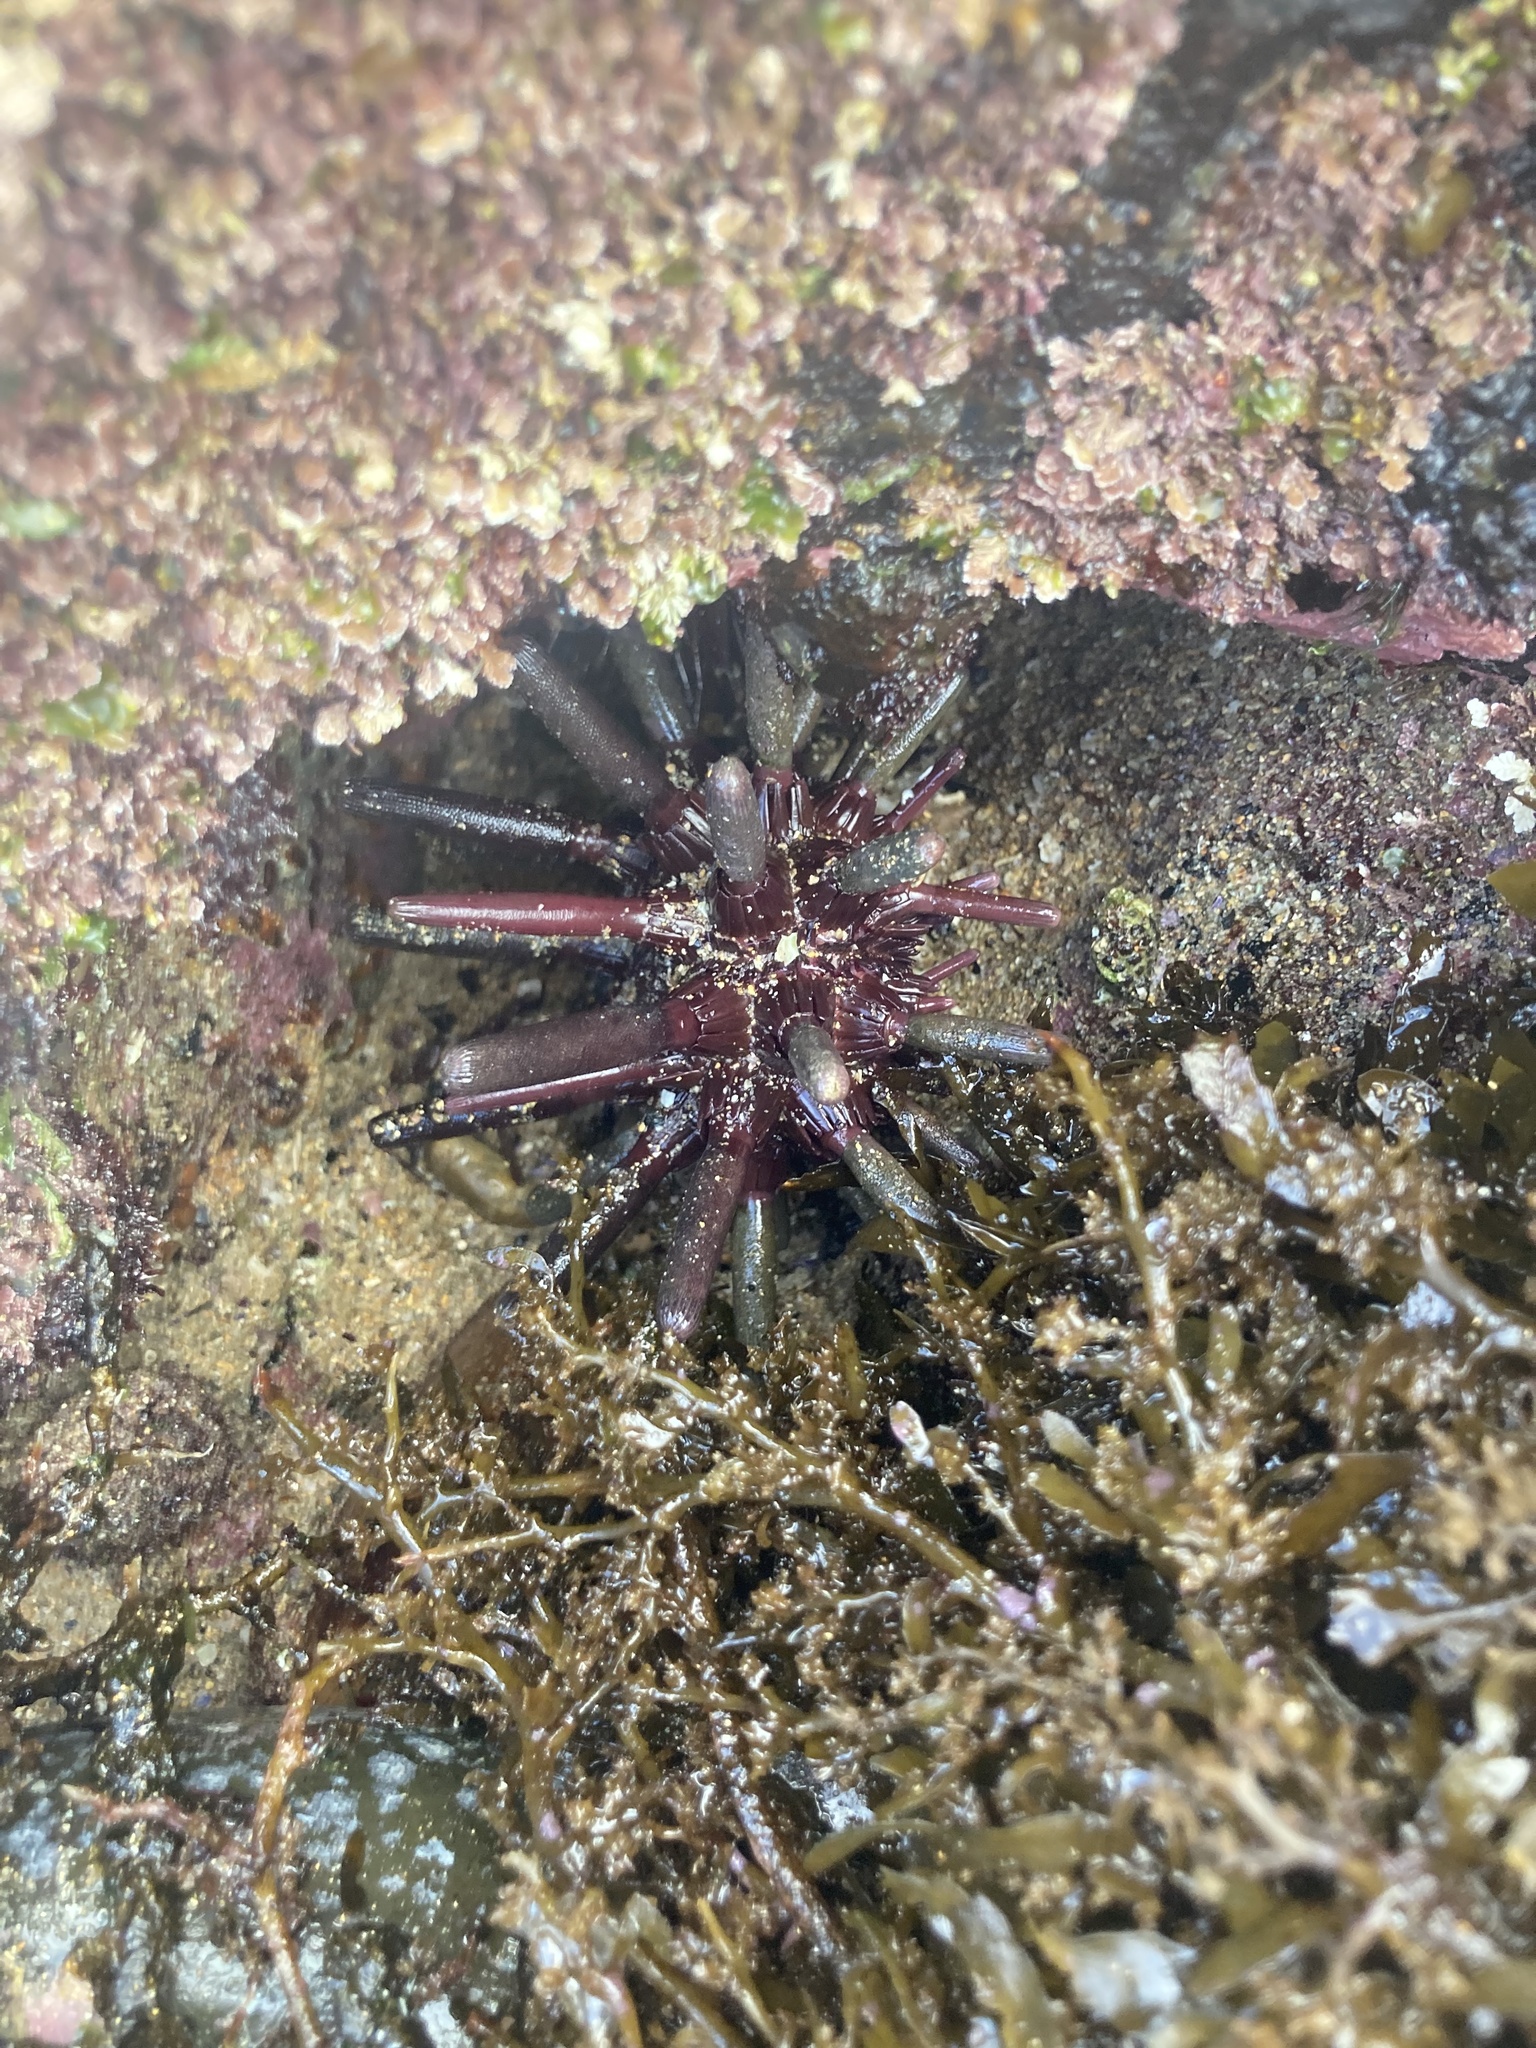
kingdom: Animalia
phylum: Echinodermata
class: Echinoidea
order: Cidaroida
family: Cidaridae
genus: Phyllacanthus
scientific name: Phyllacanthus parvispinus
